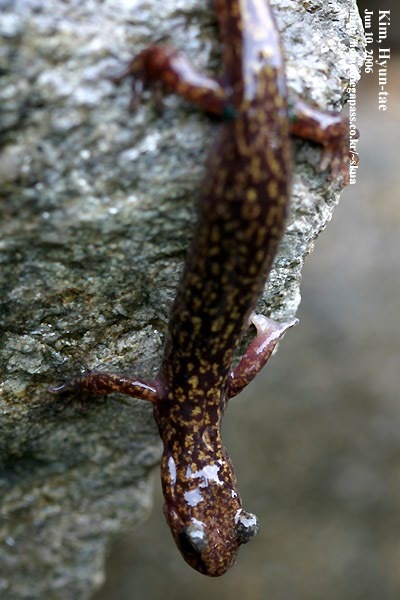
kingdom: Animalia
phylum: Chordata
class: Amphibia
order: Caudata
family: Hynobiidae
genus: Onychodactylus
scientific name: Onychodactylus koreanus
